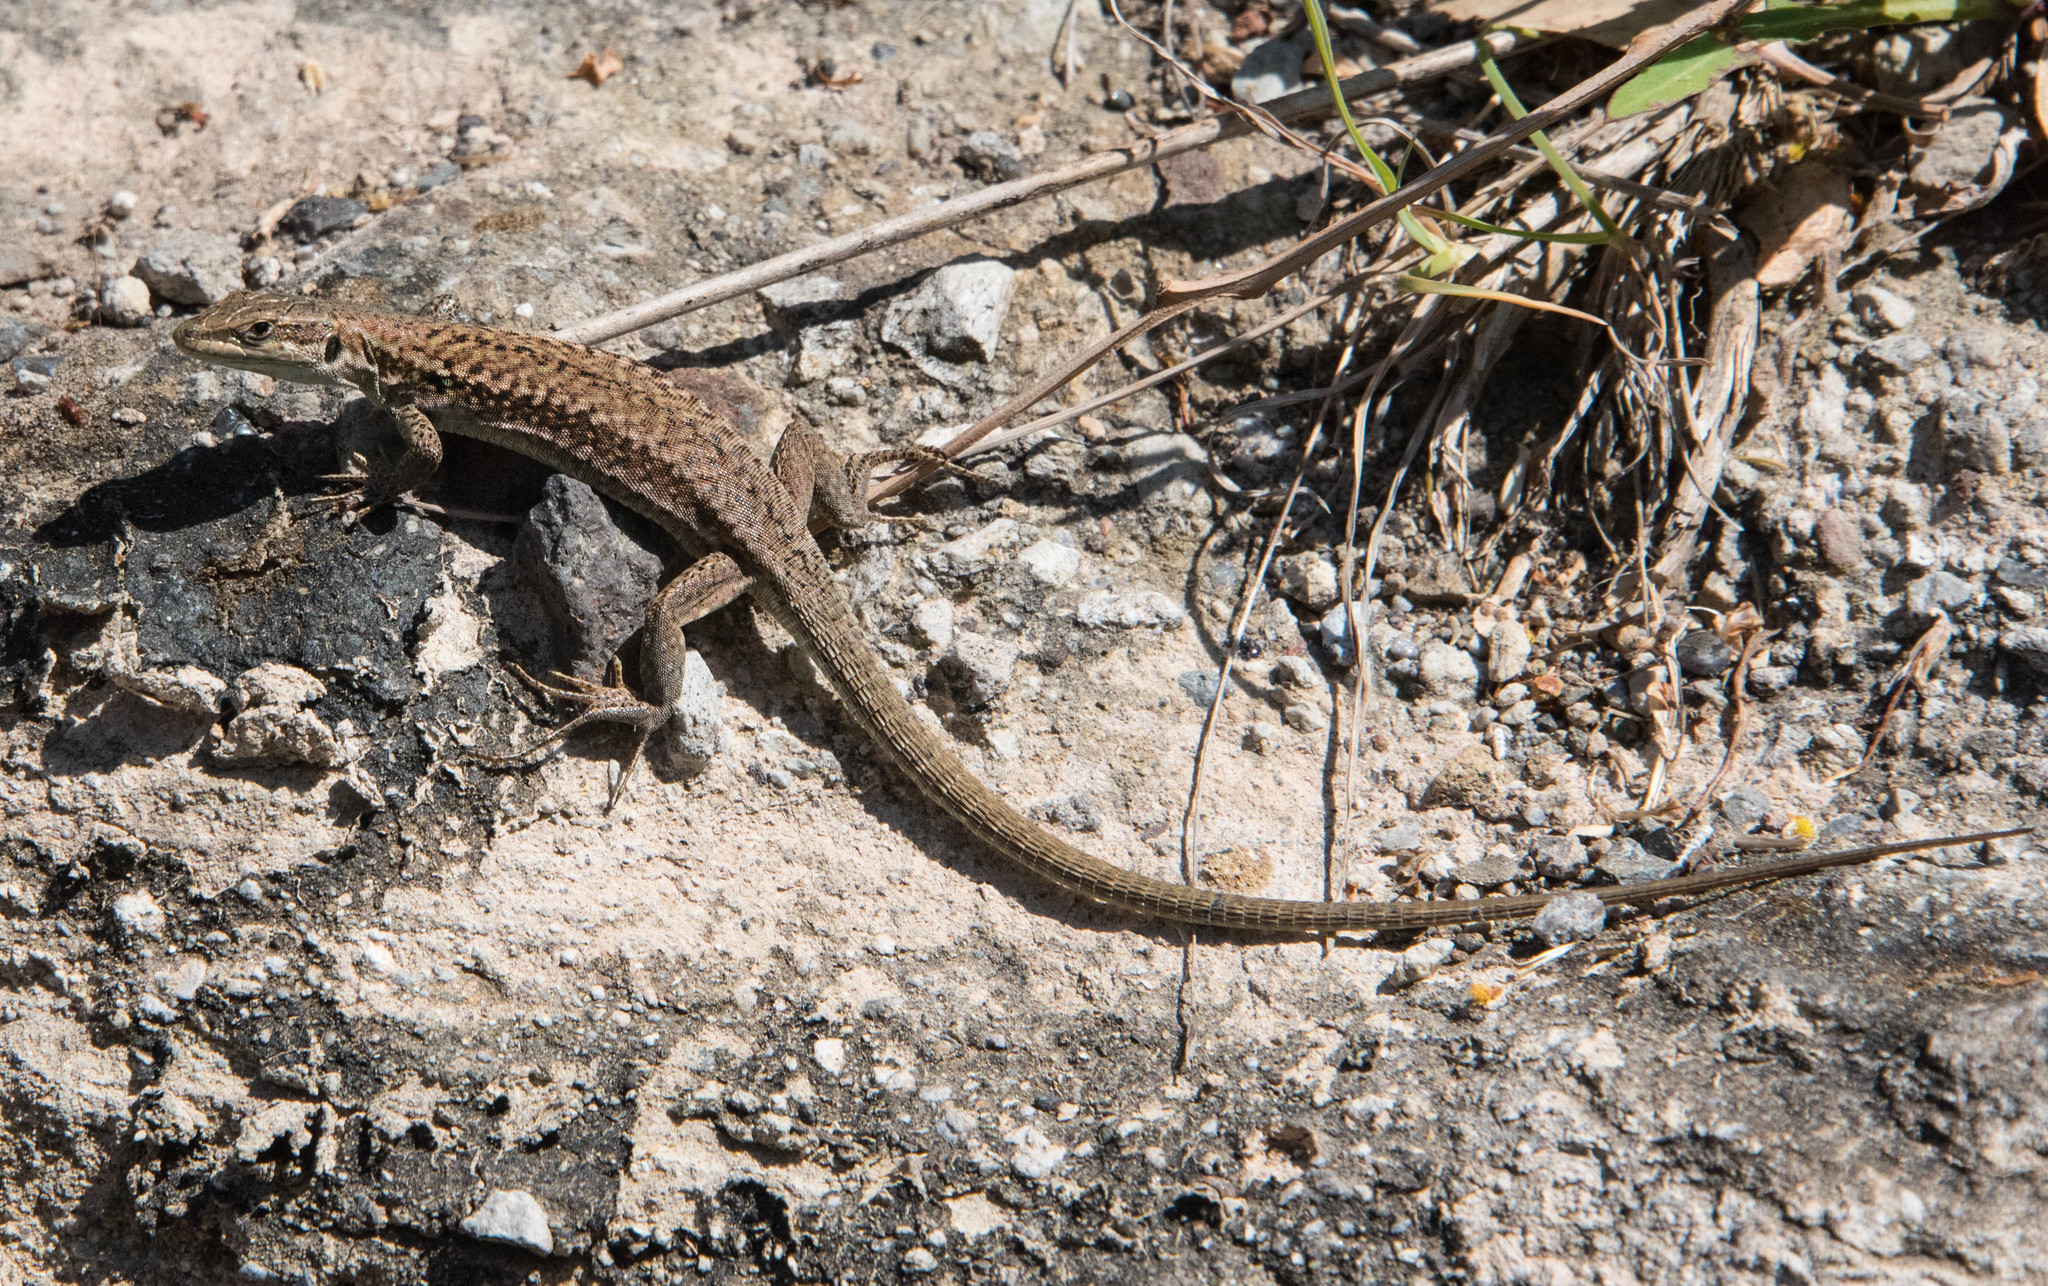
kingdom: Animalia
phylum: Chordata
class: Squamata
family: Lacertidae
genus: Podarcis
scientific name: Podarcis raffonei
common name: Aeolian wall lizard
